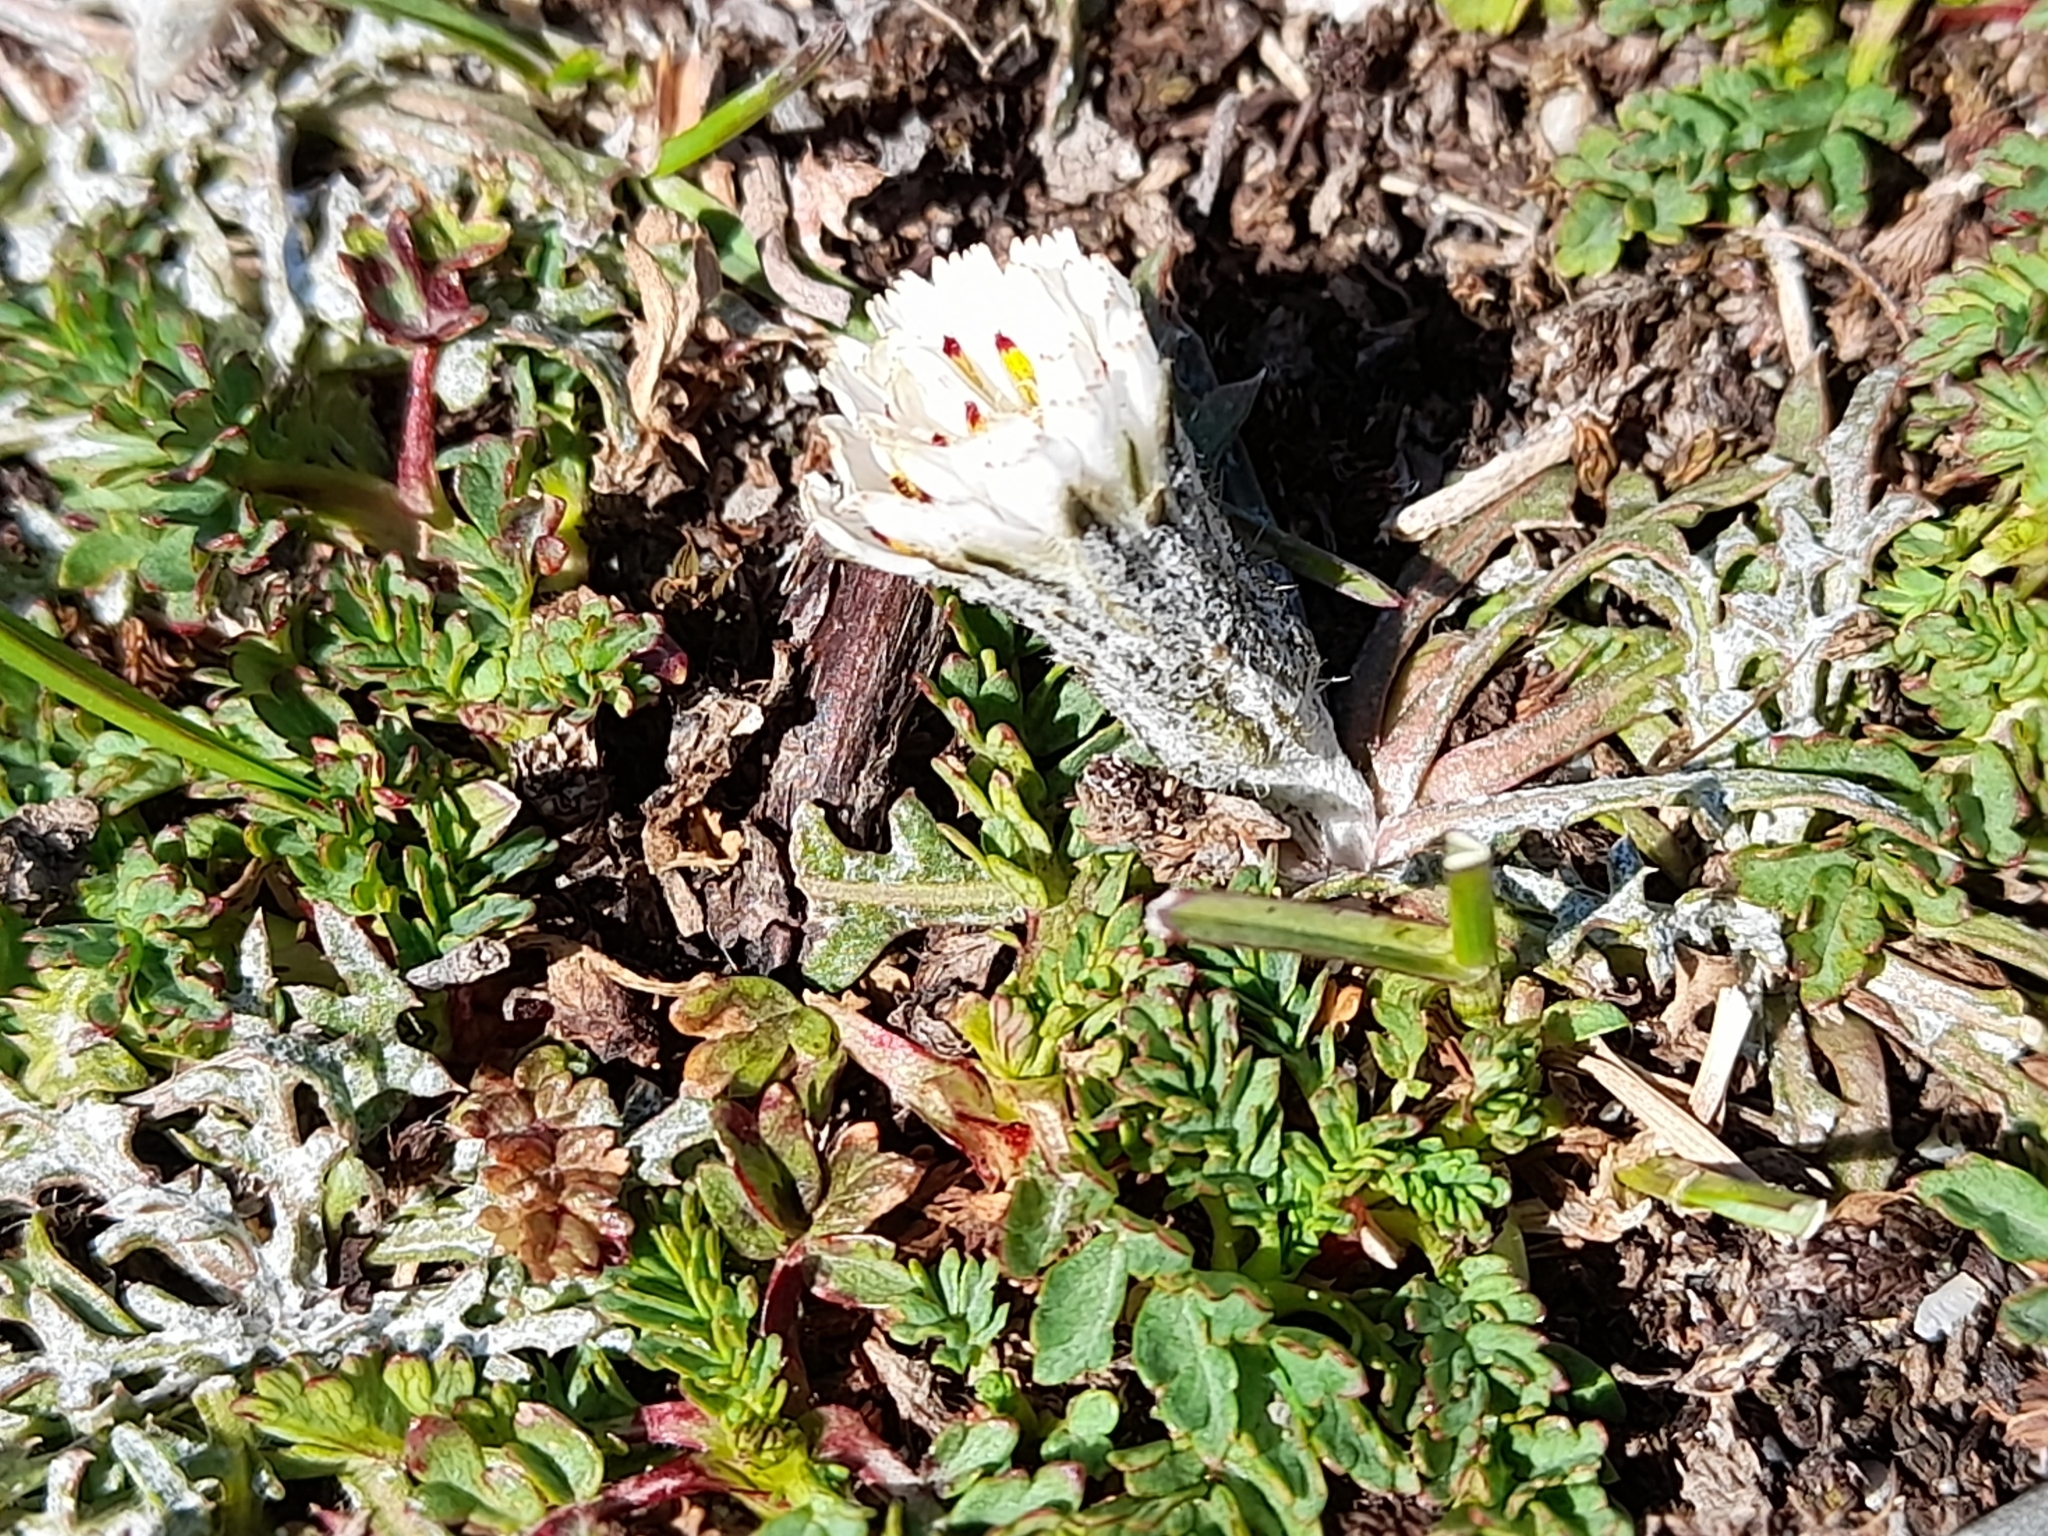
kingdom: Plantae
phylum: Tracheophyta
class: Magnoliopsida
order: Asterales
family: Asteraceae
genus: Hypochaeris
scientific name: Hypochaeris incana
